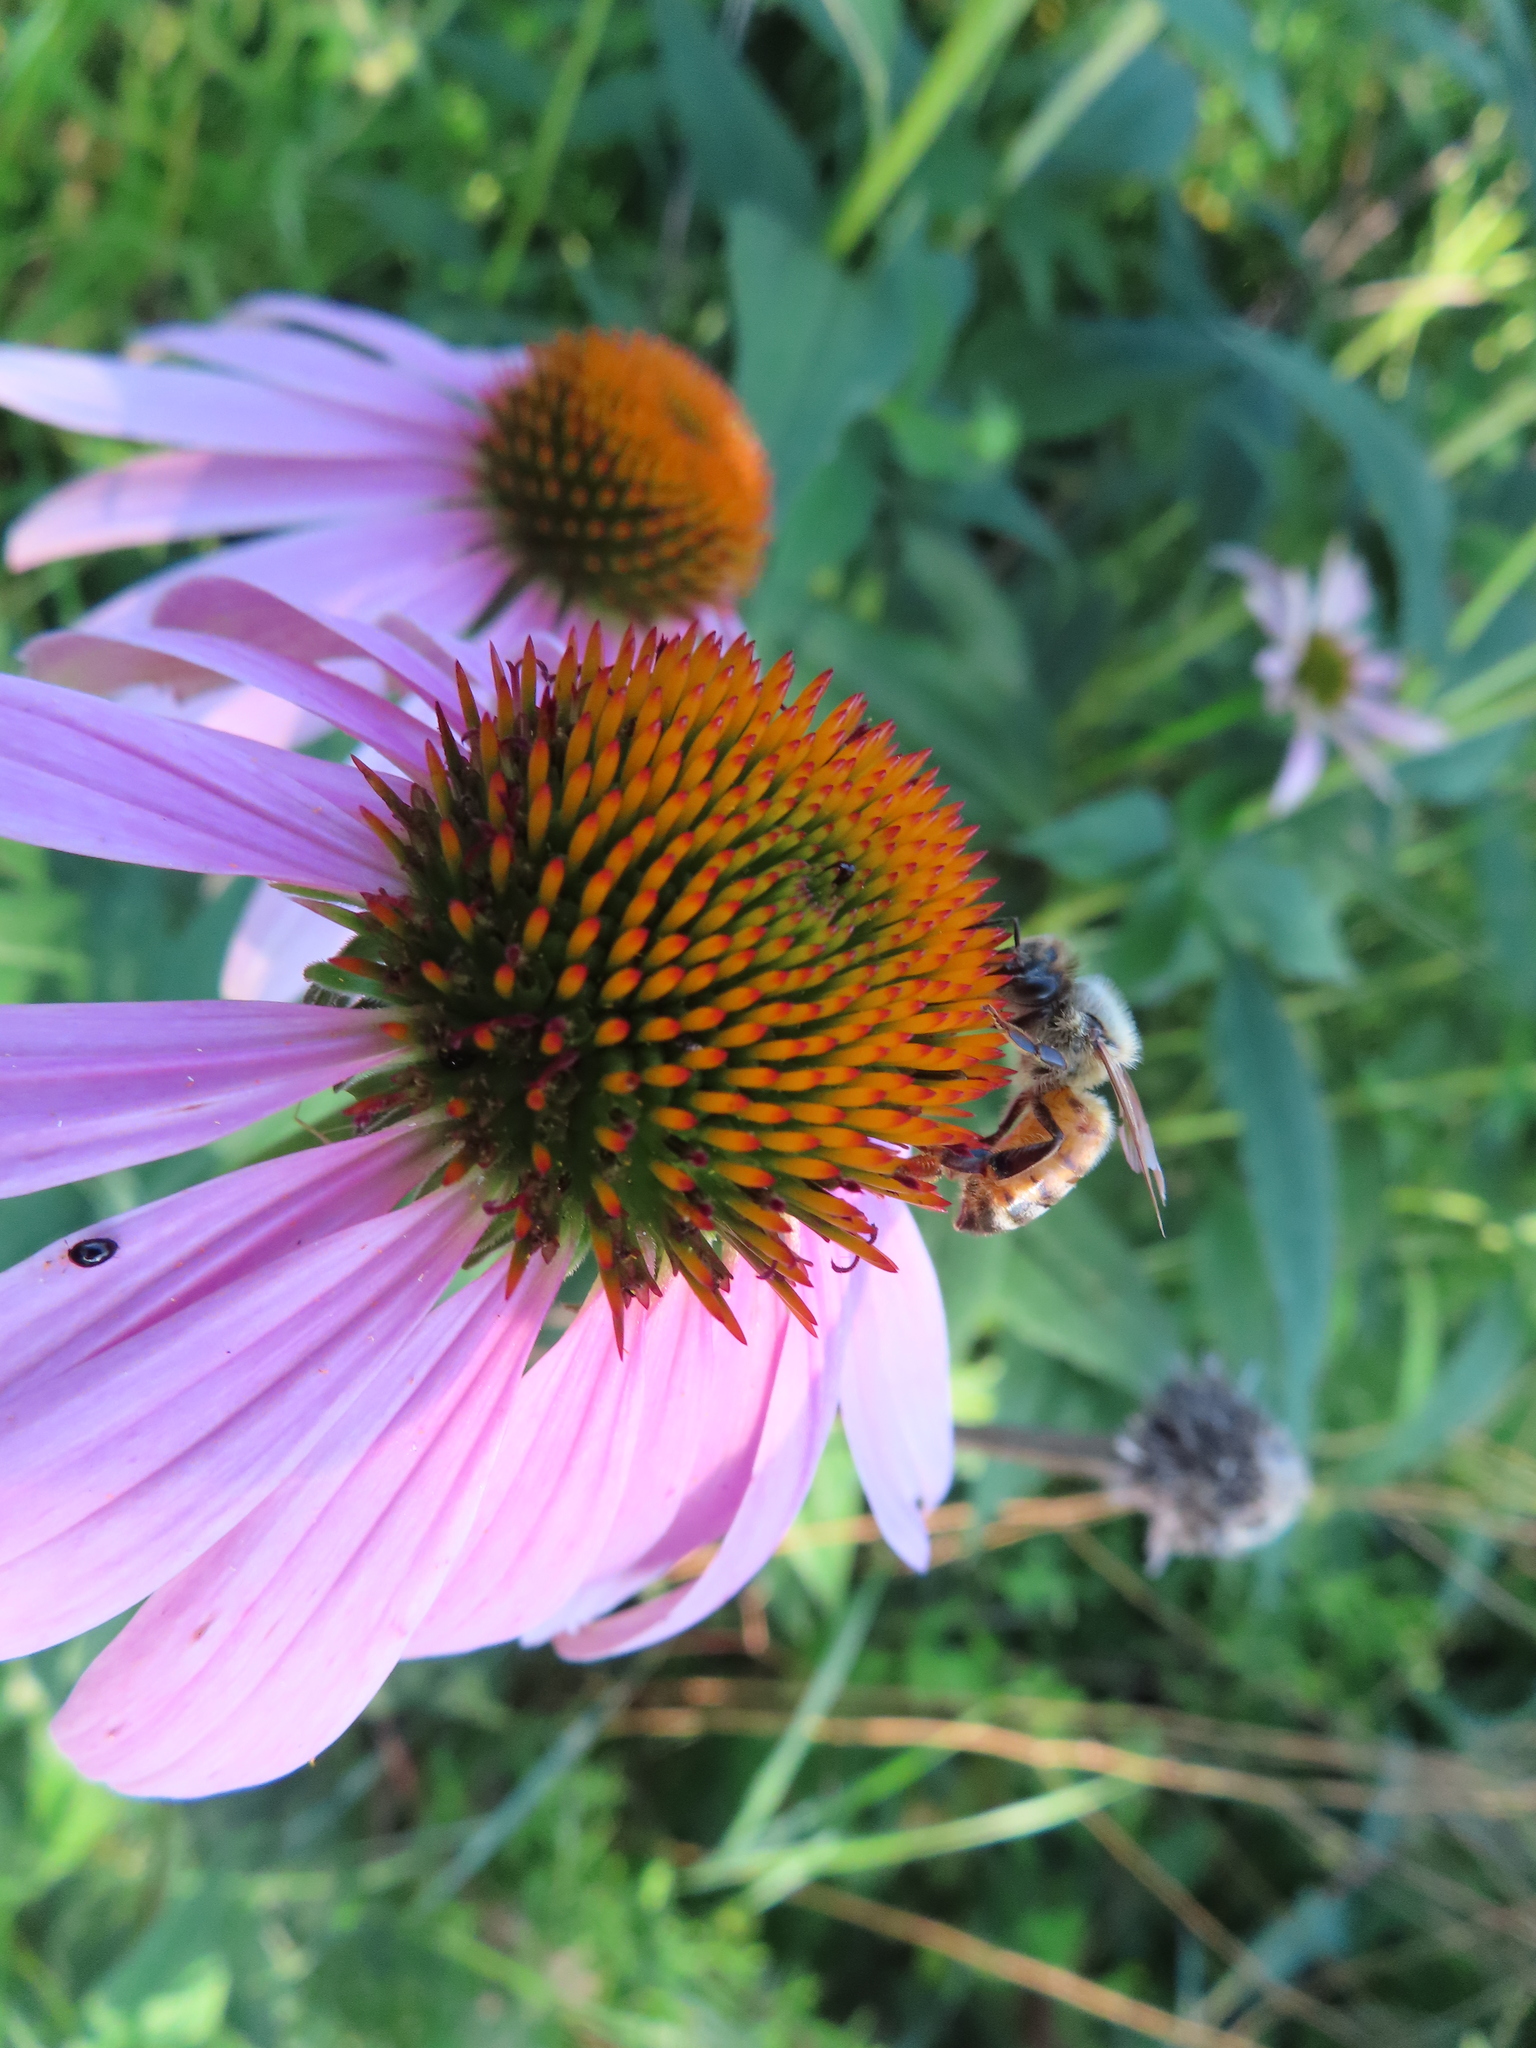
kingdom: Animalia
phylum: Arthropoda
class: Insecta
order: Hymenoptera
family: Apidae
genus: Apis
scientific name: Apis mellifera
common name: Honey bee
